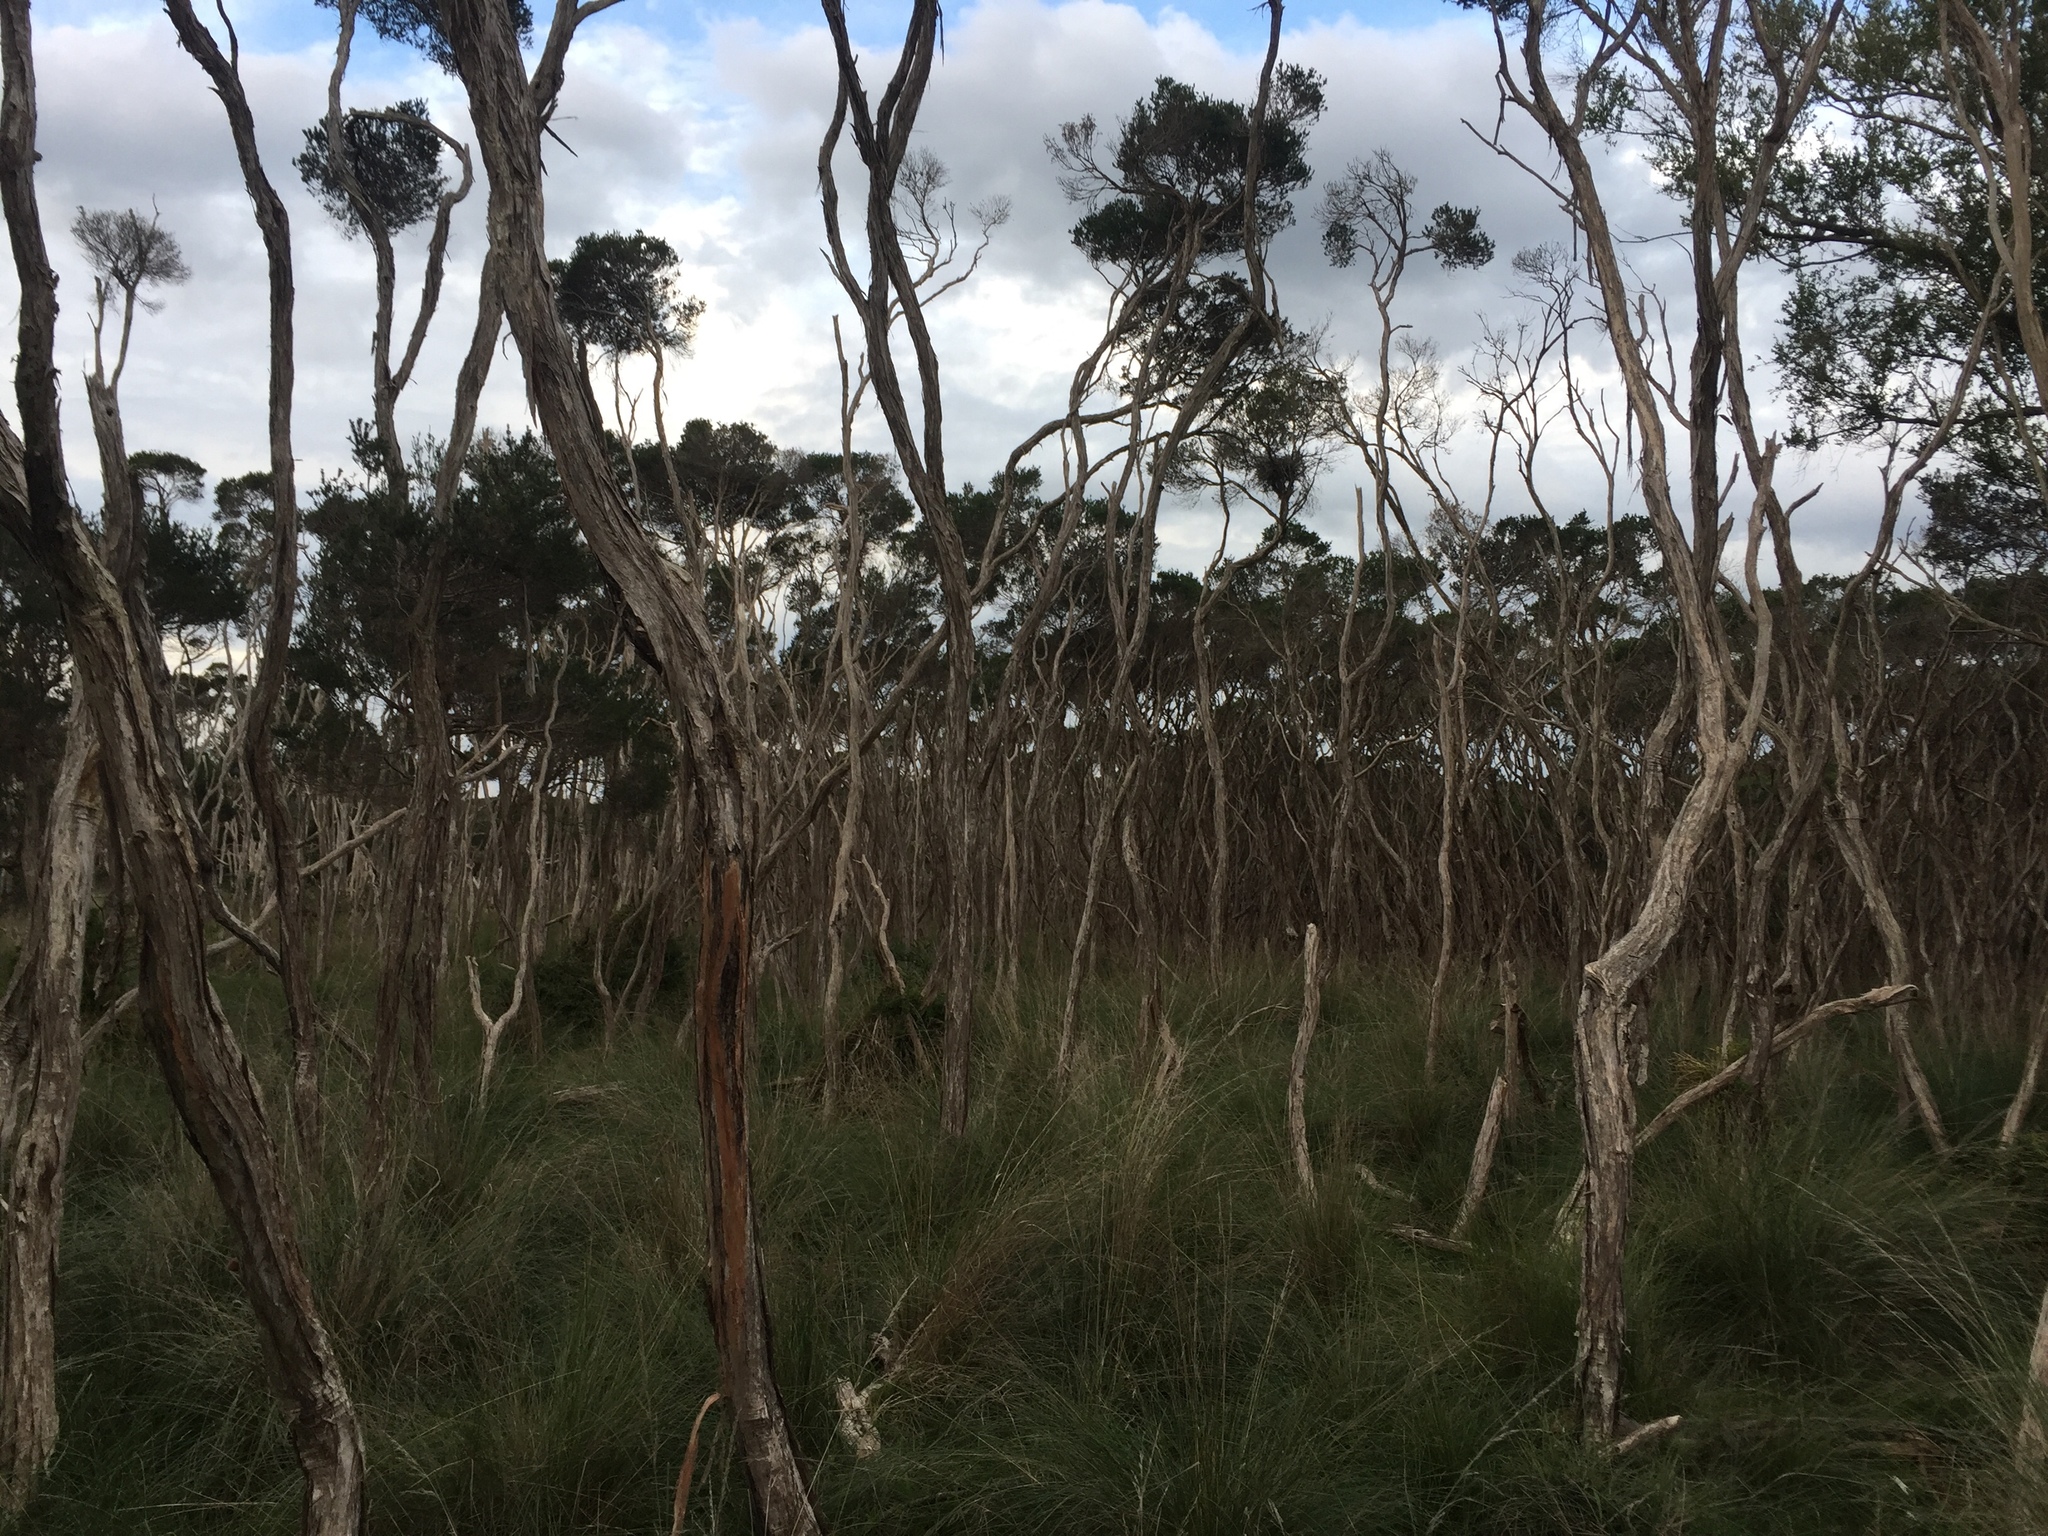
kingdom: Plantae
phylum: Tracheophyta
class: Magnoliopsida
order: Myrtales
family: Myrtaceae
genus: Melaleuca
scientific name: Melaleuca ericifolia
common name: Paperbark teatree
